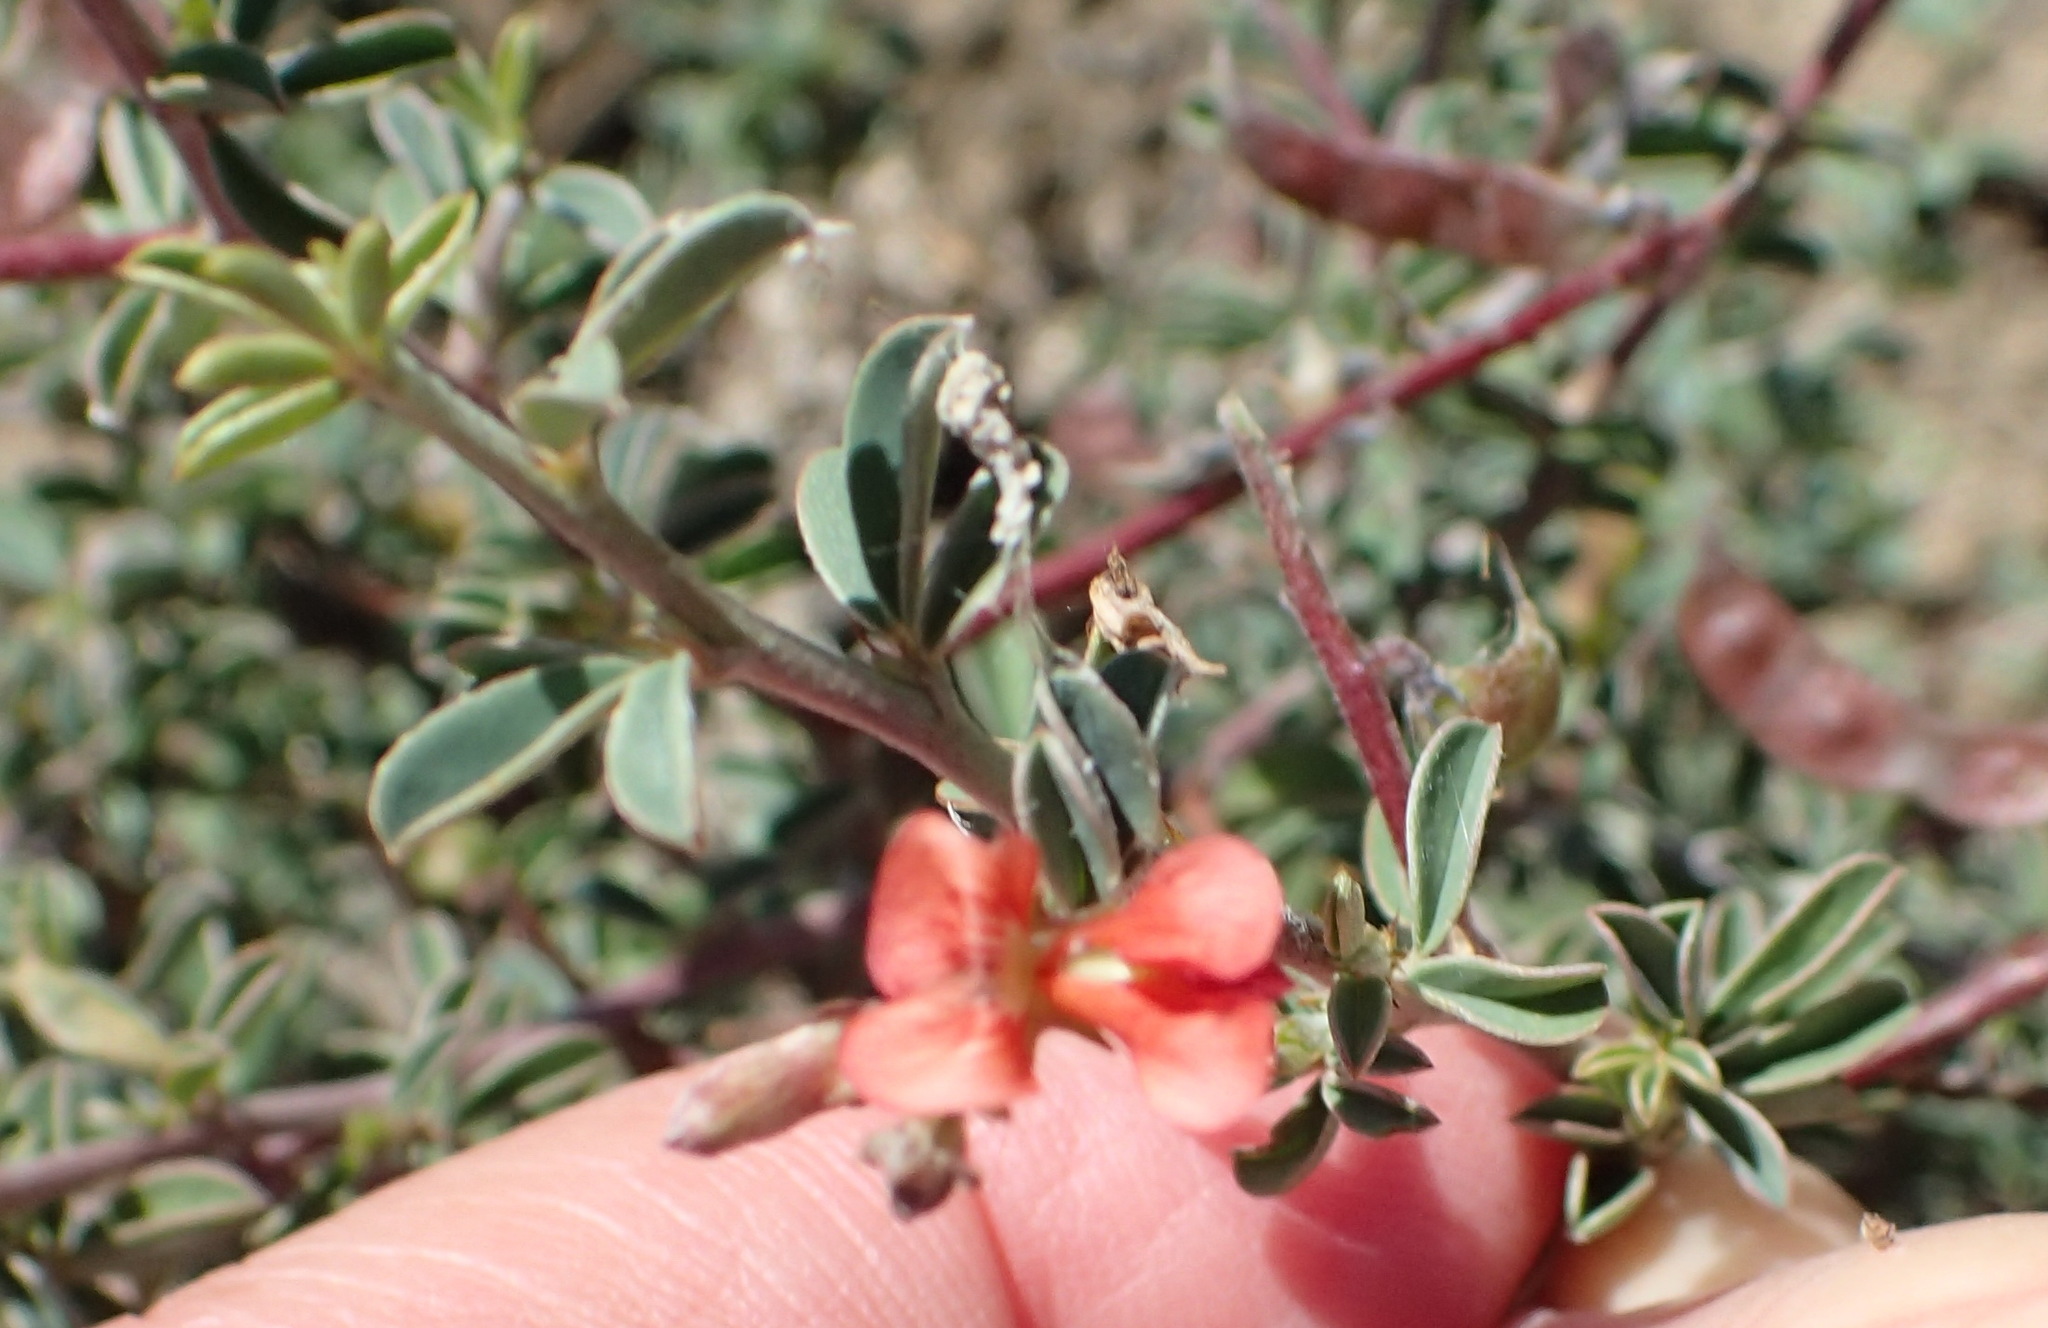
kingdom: Plantae
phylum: Tracheophyta
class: Magnoliopsida
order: Fabales
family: Fabaceae
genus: Indigofera
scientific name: Indigofera sessilifolia
